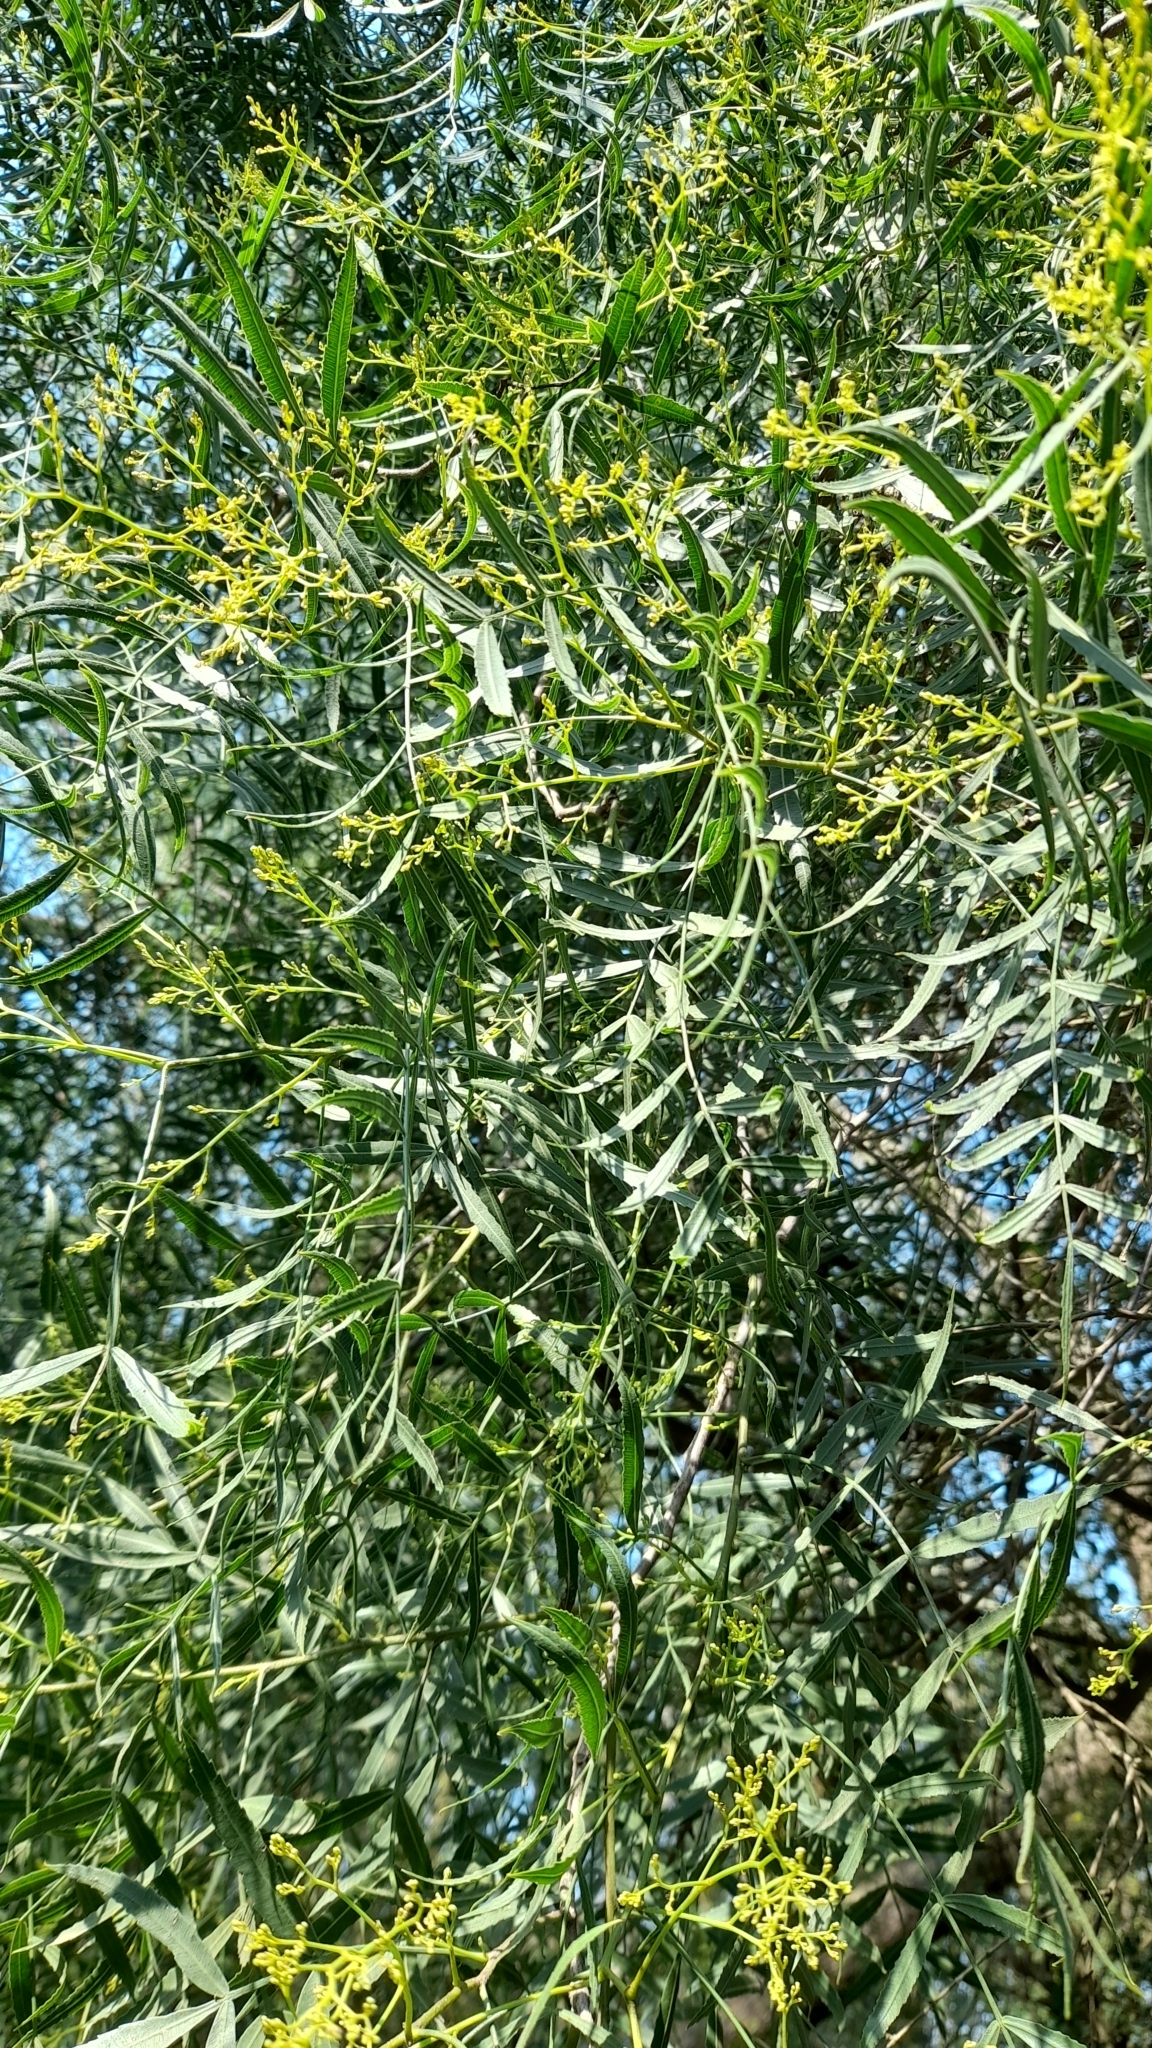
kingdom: Plantae
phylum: Tracheophyta
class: Magnoliopsida
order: Sapindales
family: Anacardiaceae
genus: Schinus
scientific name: Schinus molle
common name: Peruvian peppertree
